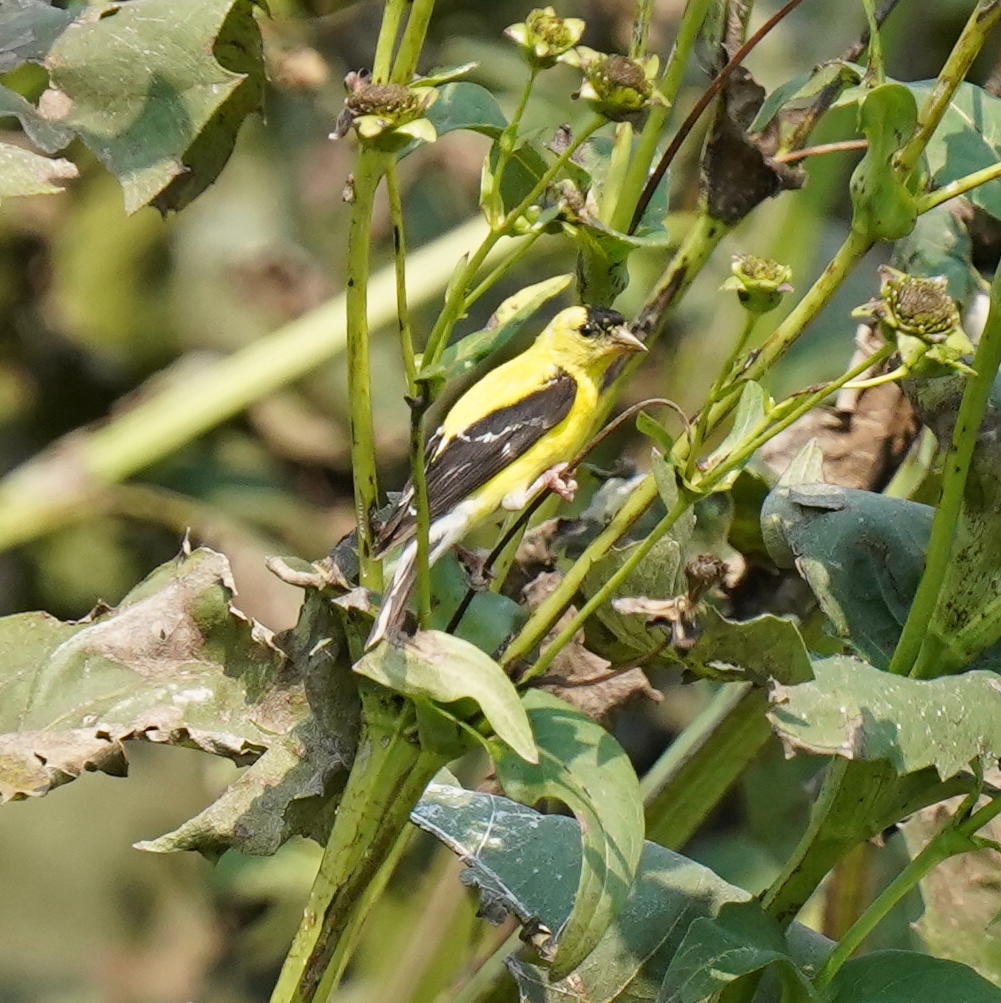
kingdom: Animalia
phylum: Chordata
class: Aves
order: Passeriformes
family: Fringillidae
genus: Spinus
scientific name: Spinus tristis
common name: American goldfinch
